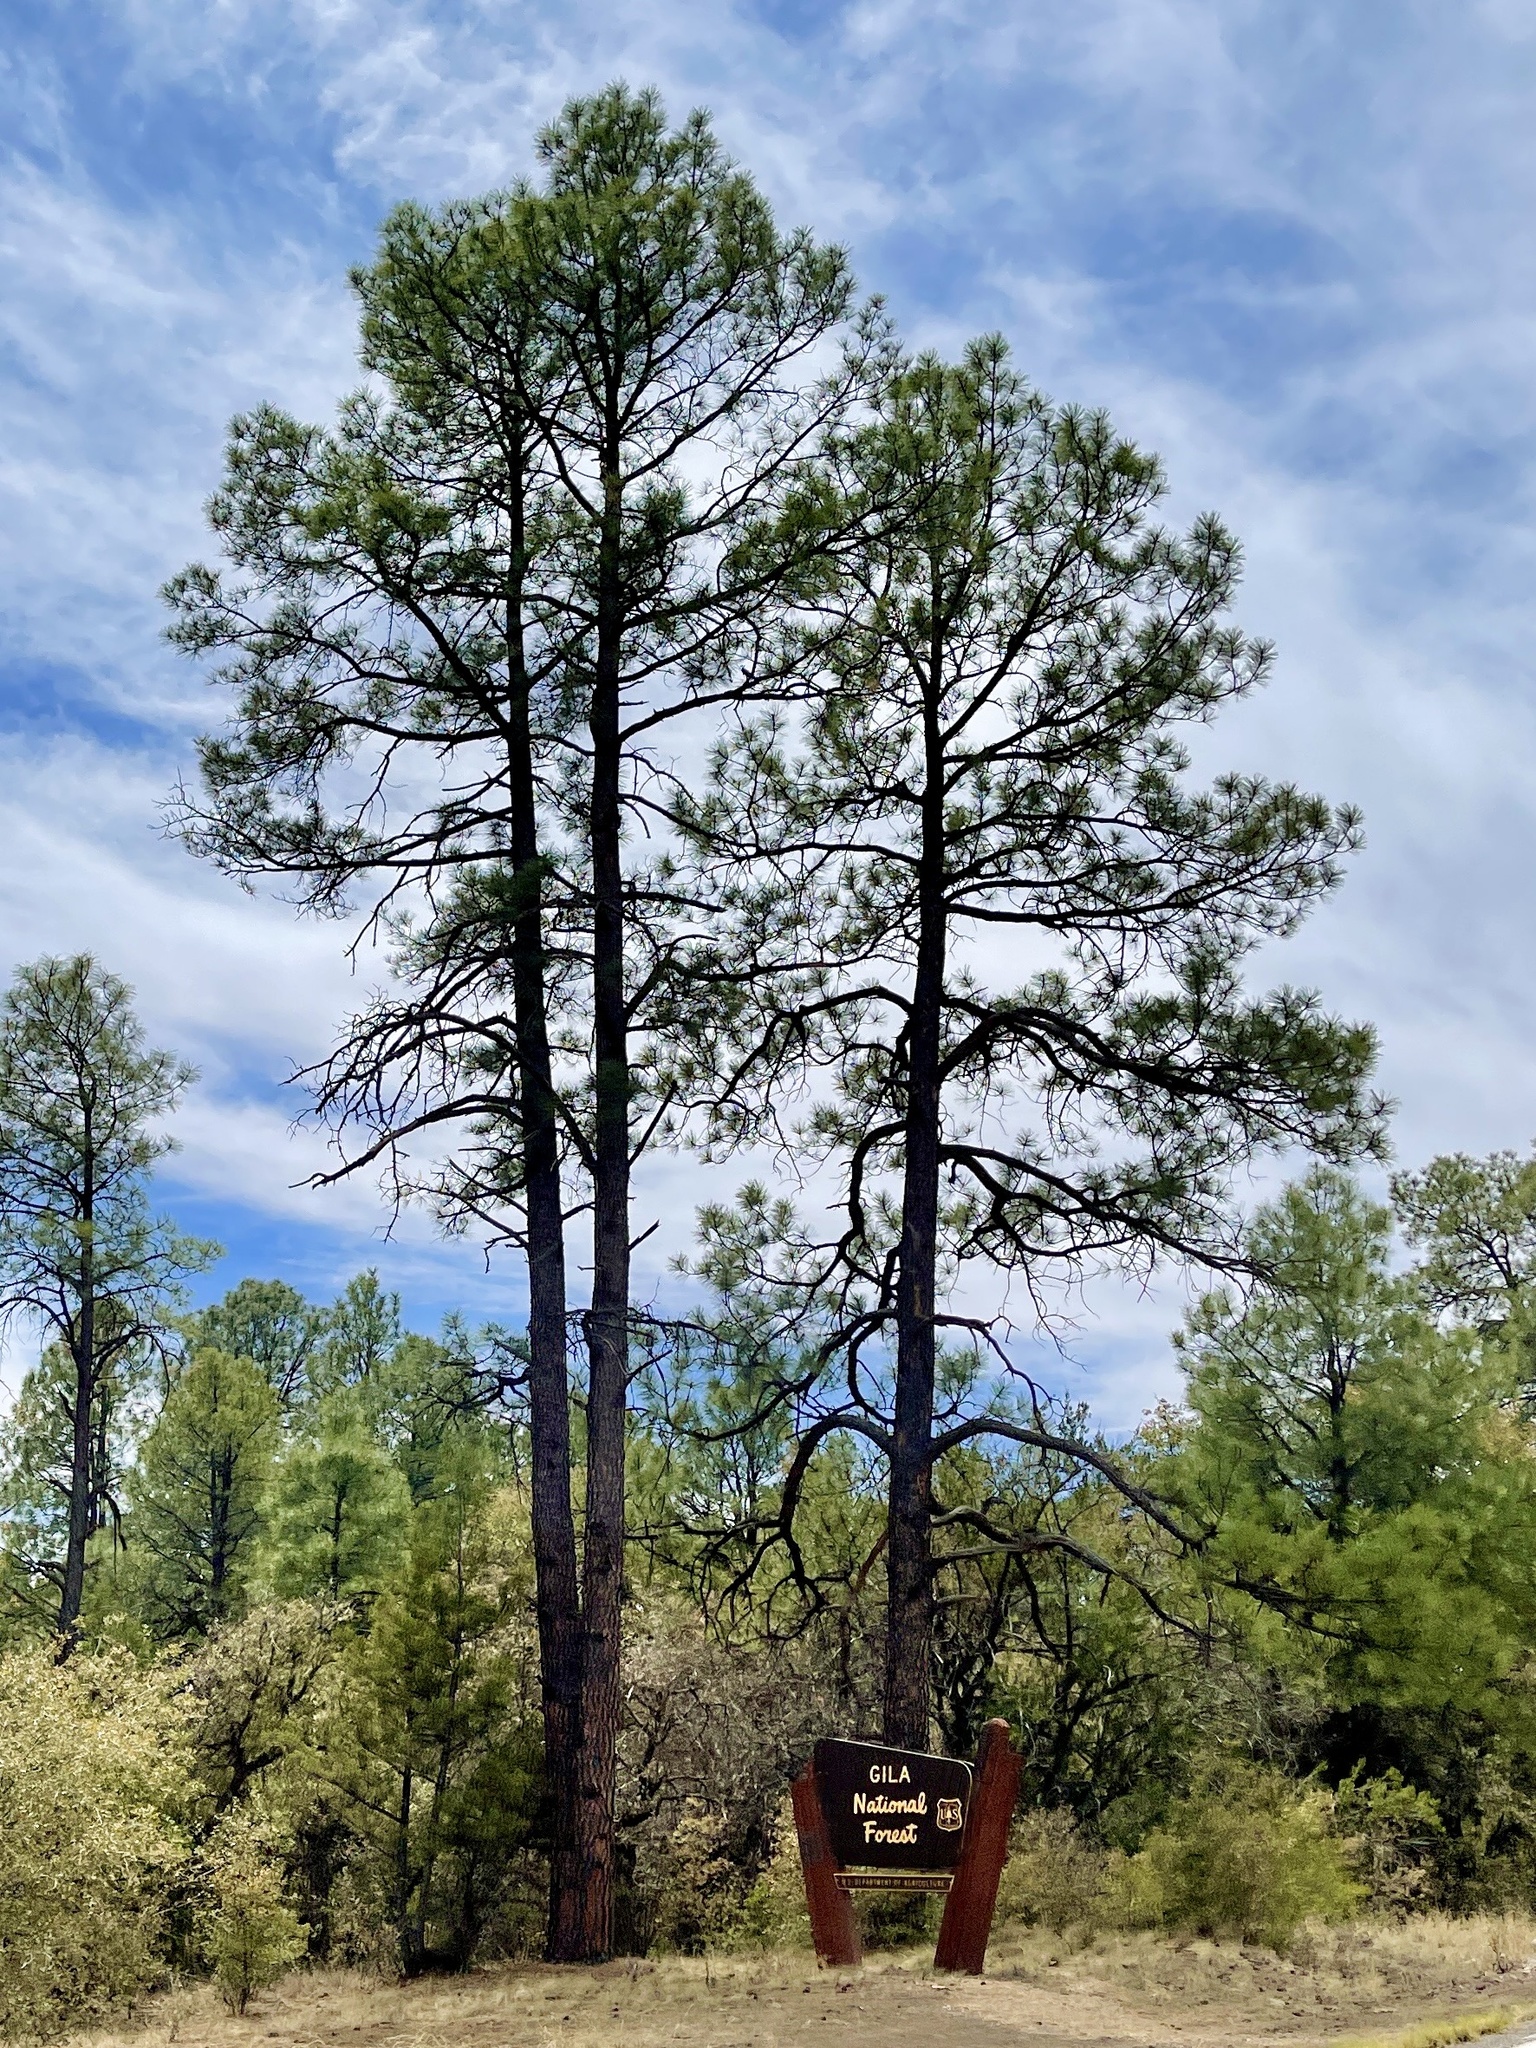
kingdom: Plantae
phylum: Tracheophyta
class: Pinopsida
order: Pinales
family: Pinaceae
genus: Pinus
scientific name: Pinus ponderosa
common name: Western yellow-pine
